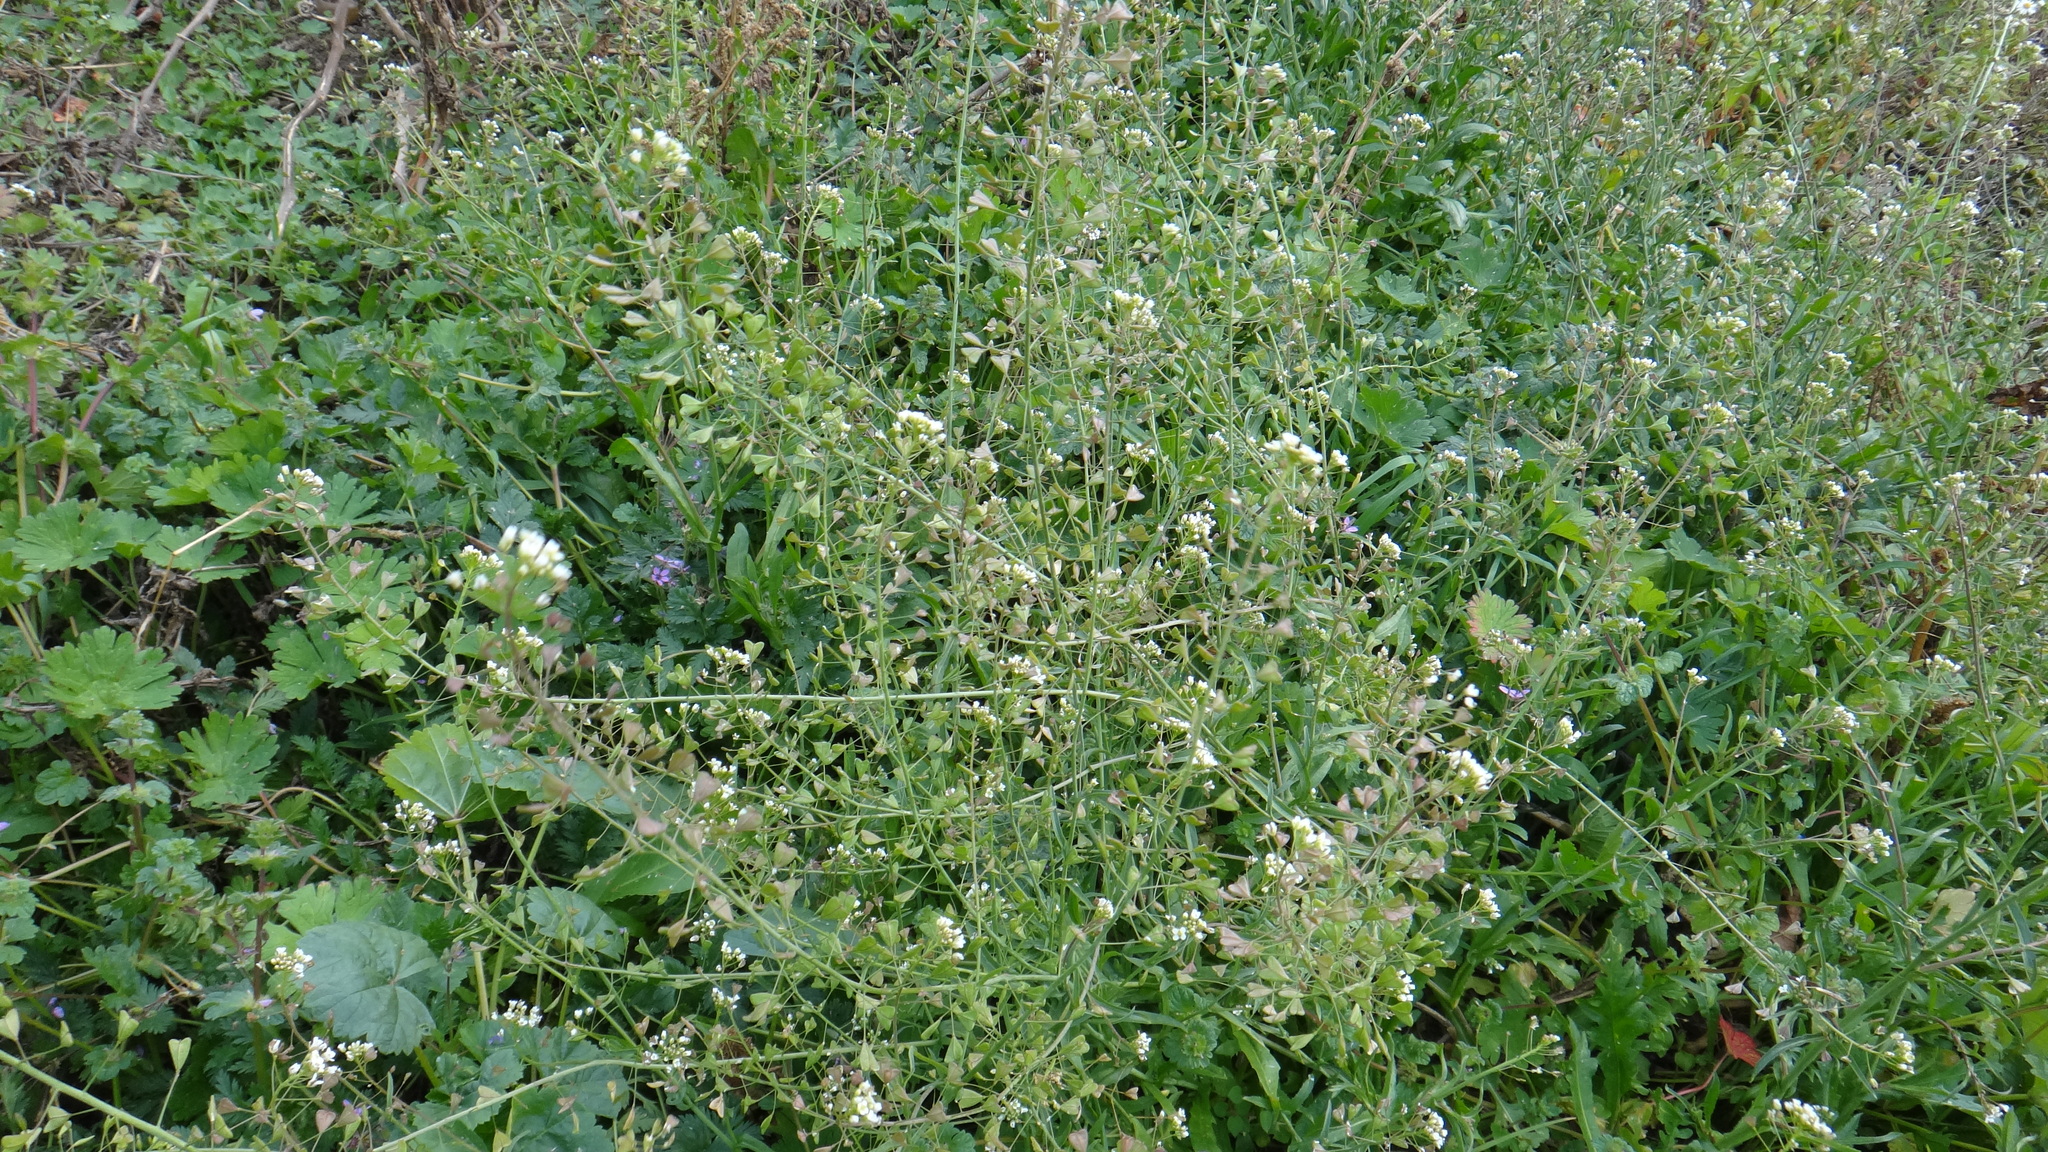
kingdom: Plantae
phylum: Tracheophyta
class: Magnoliopsida
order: Brassicales
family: Brassicaceae
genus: Capsella
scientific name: Capsella bursa-pastoris
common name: Shepherd's purse
